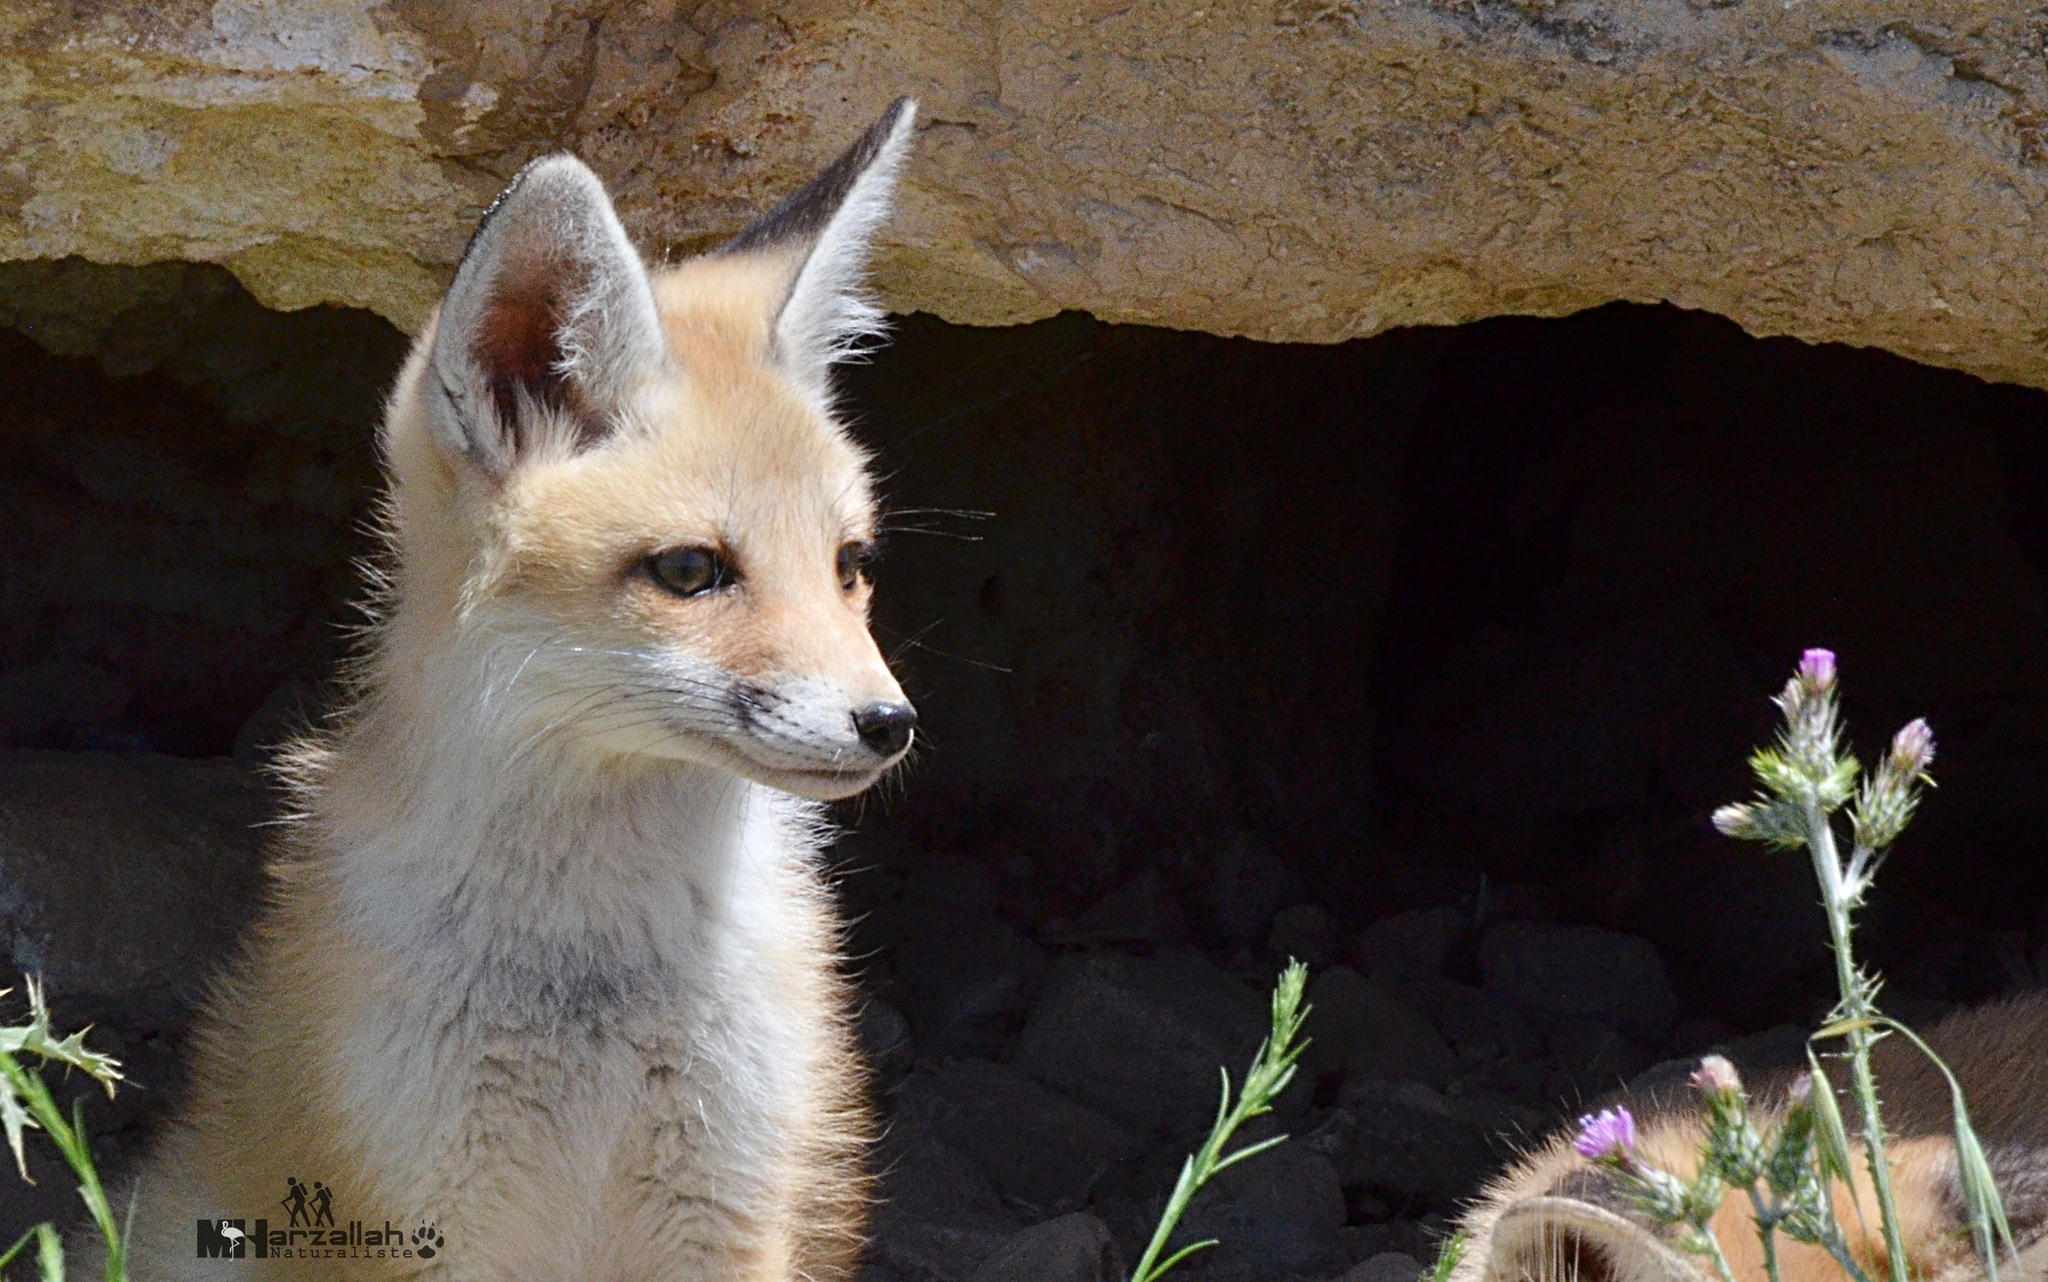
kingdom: Animalia
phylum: Chordata
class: Mammalia
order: Carnivora
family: Canidae
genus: Vulpes
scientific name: Vulpes vulpes
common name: Red fox
